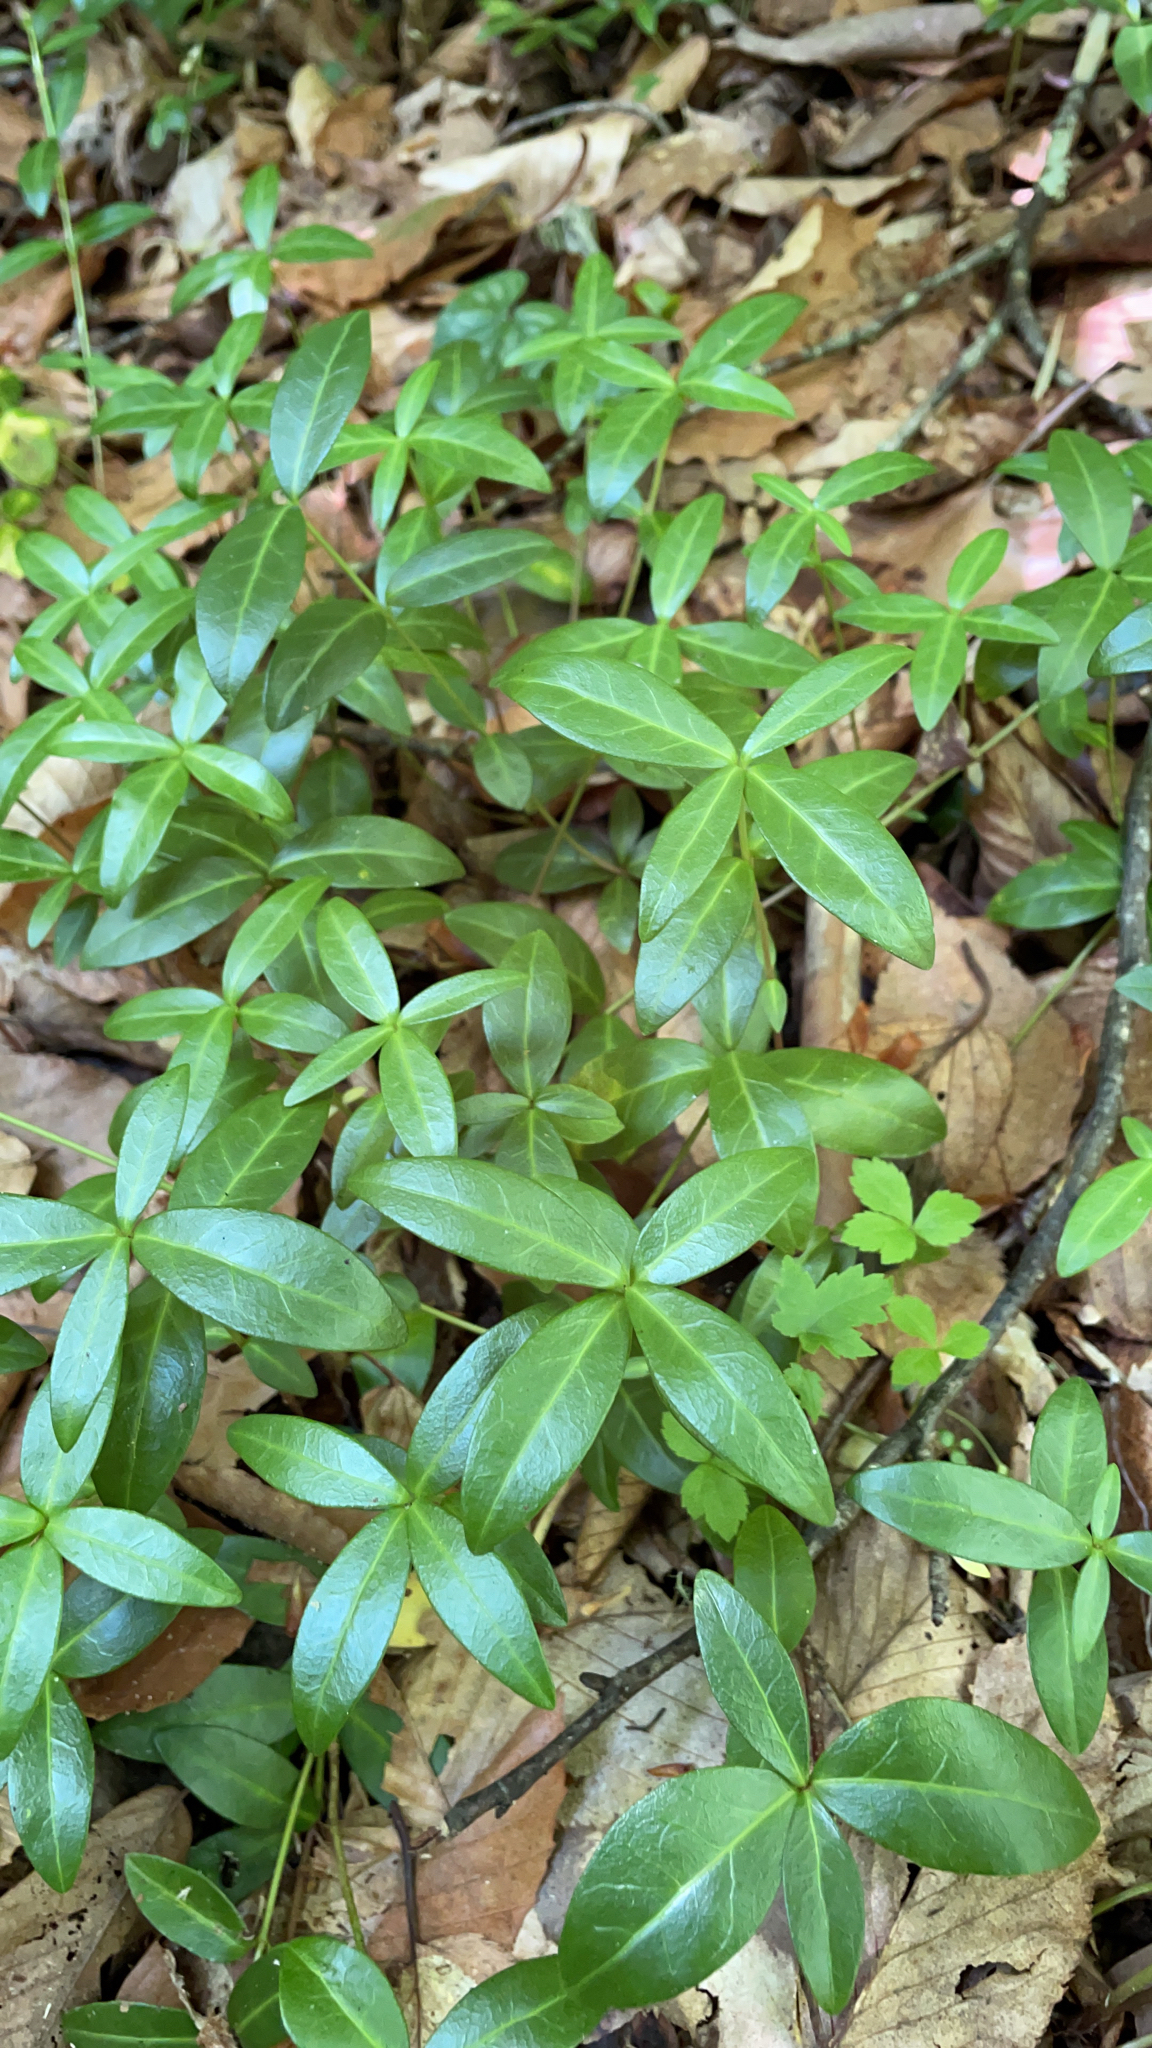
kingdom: Plantae
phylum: Tracheophyta
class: Magnoliopsida
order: Gentianales
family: Apocynaceae
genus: Vinca
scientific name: Vinca minor
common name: Lesser periwinkle
